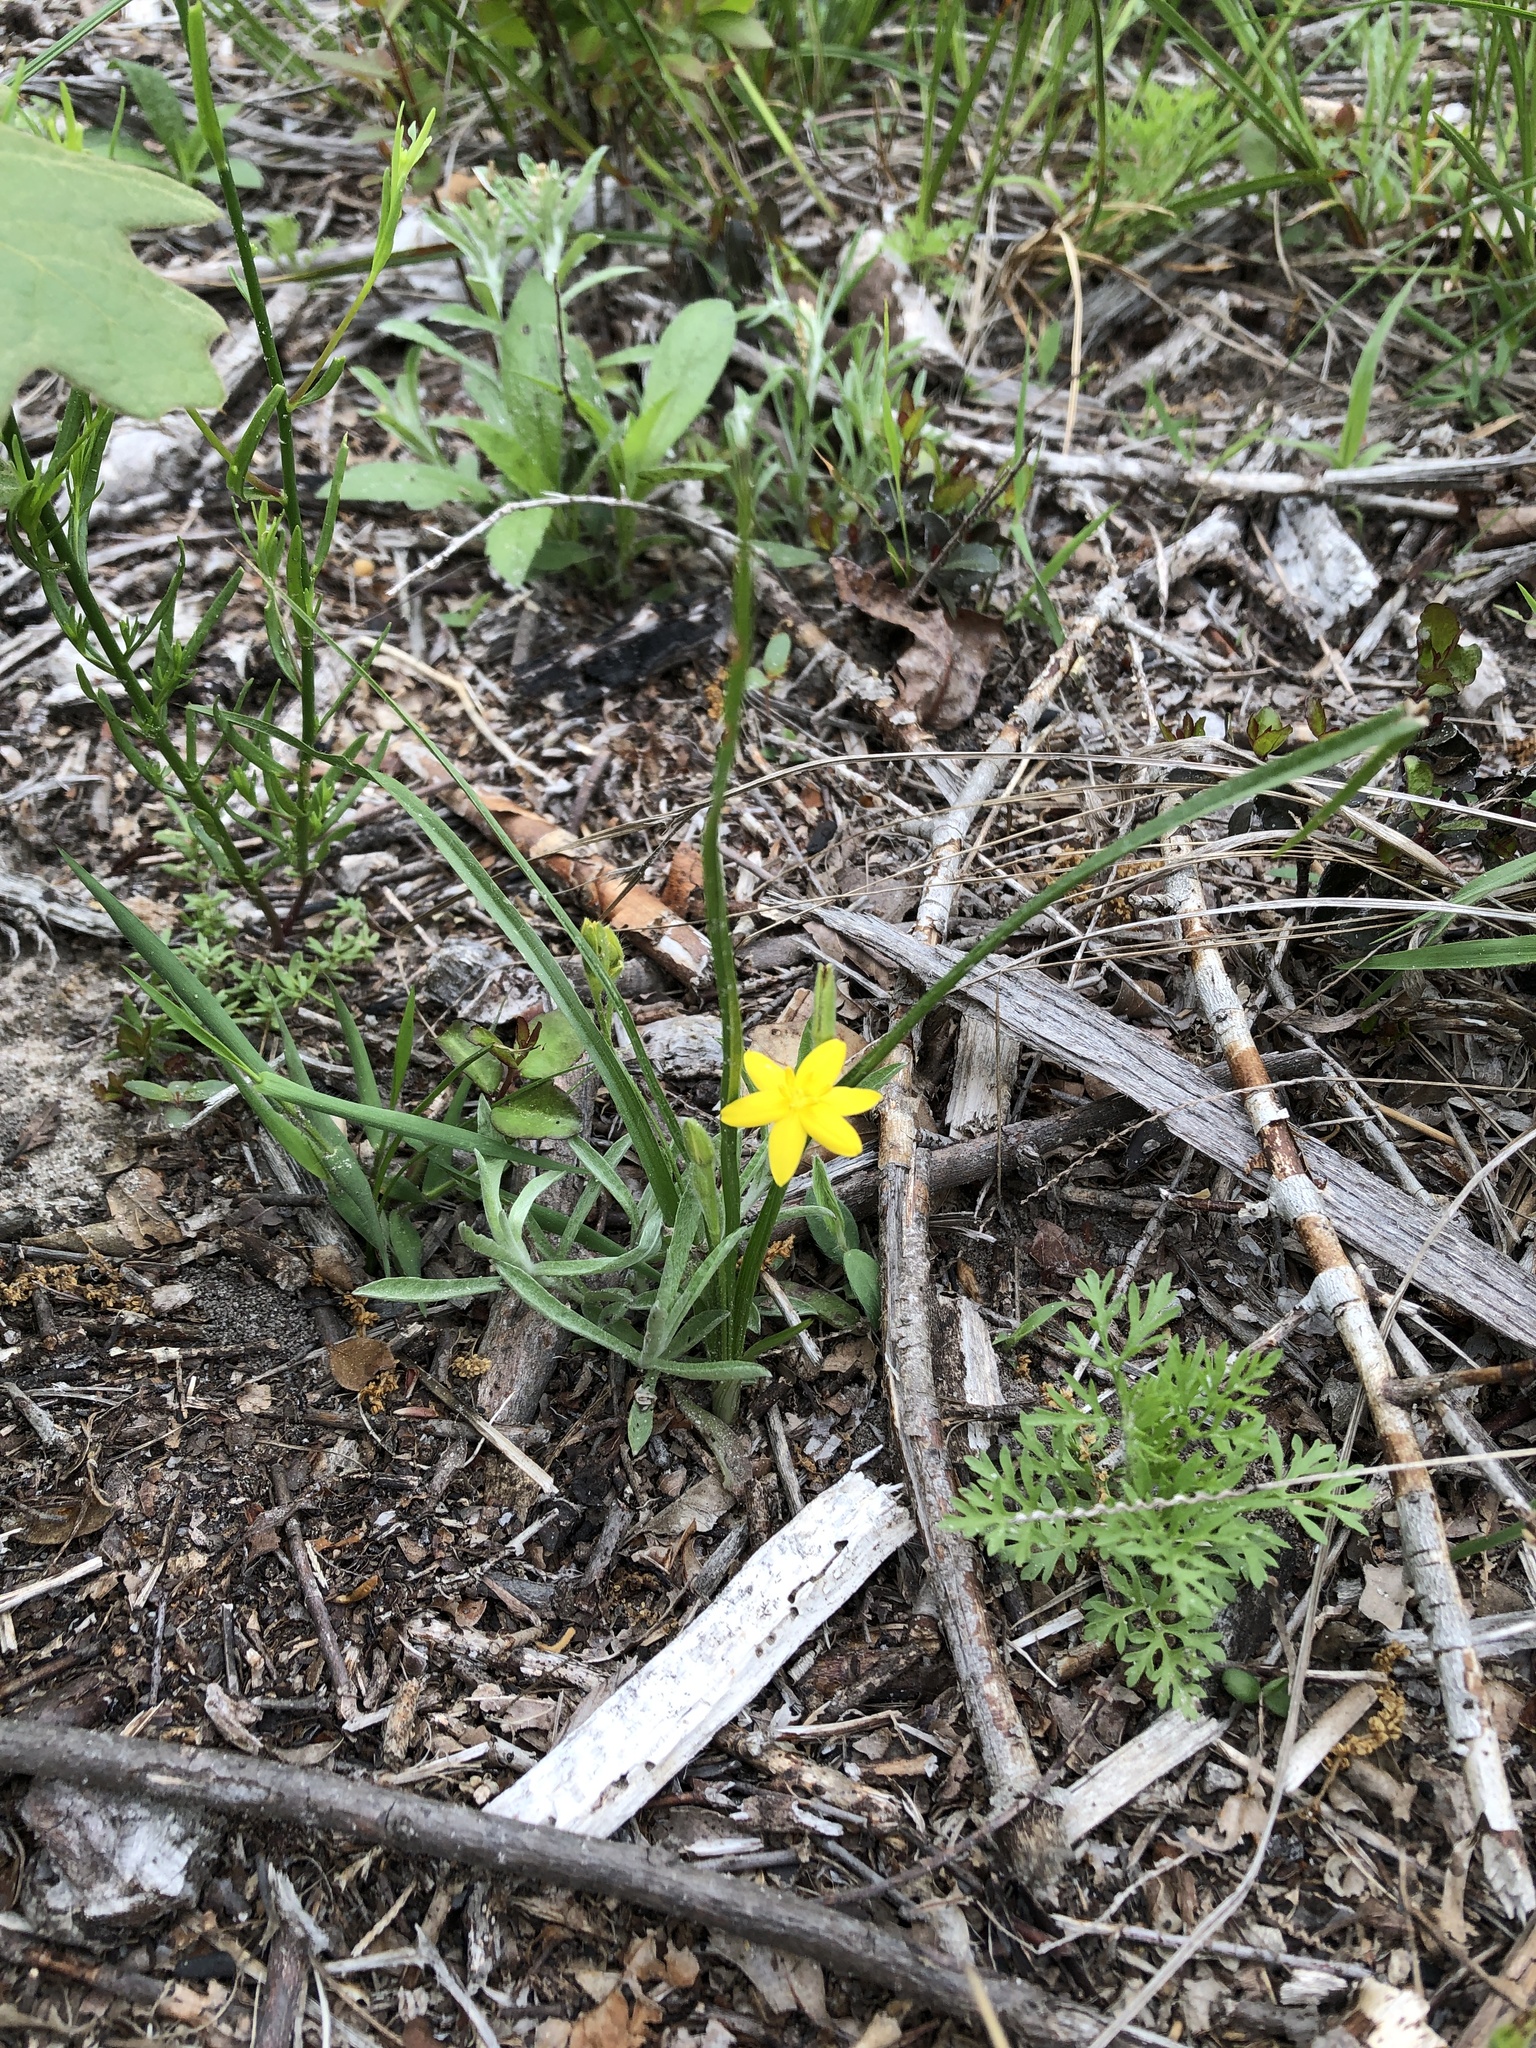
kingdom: Plantae
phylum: Tracheophyta
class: Liliopsida
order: Asparagales
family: Hypoxidaceae
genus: Hypoxis
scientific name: Hypoxis hirsuta
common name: Common goldstar
